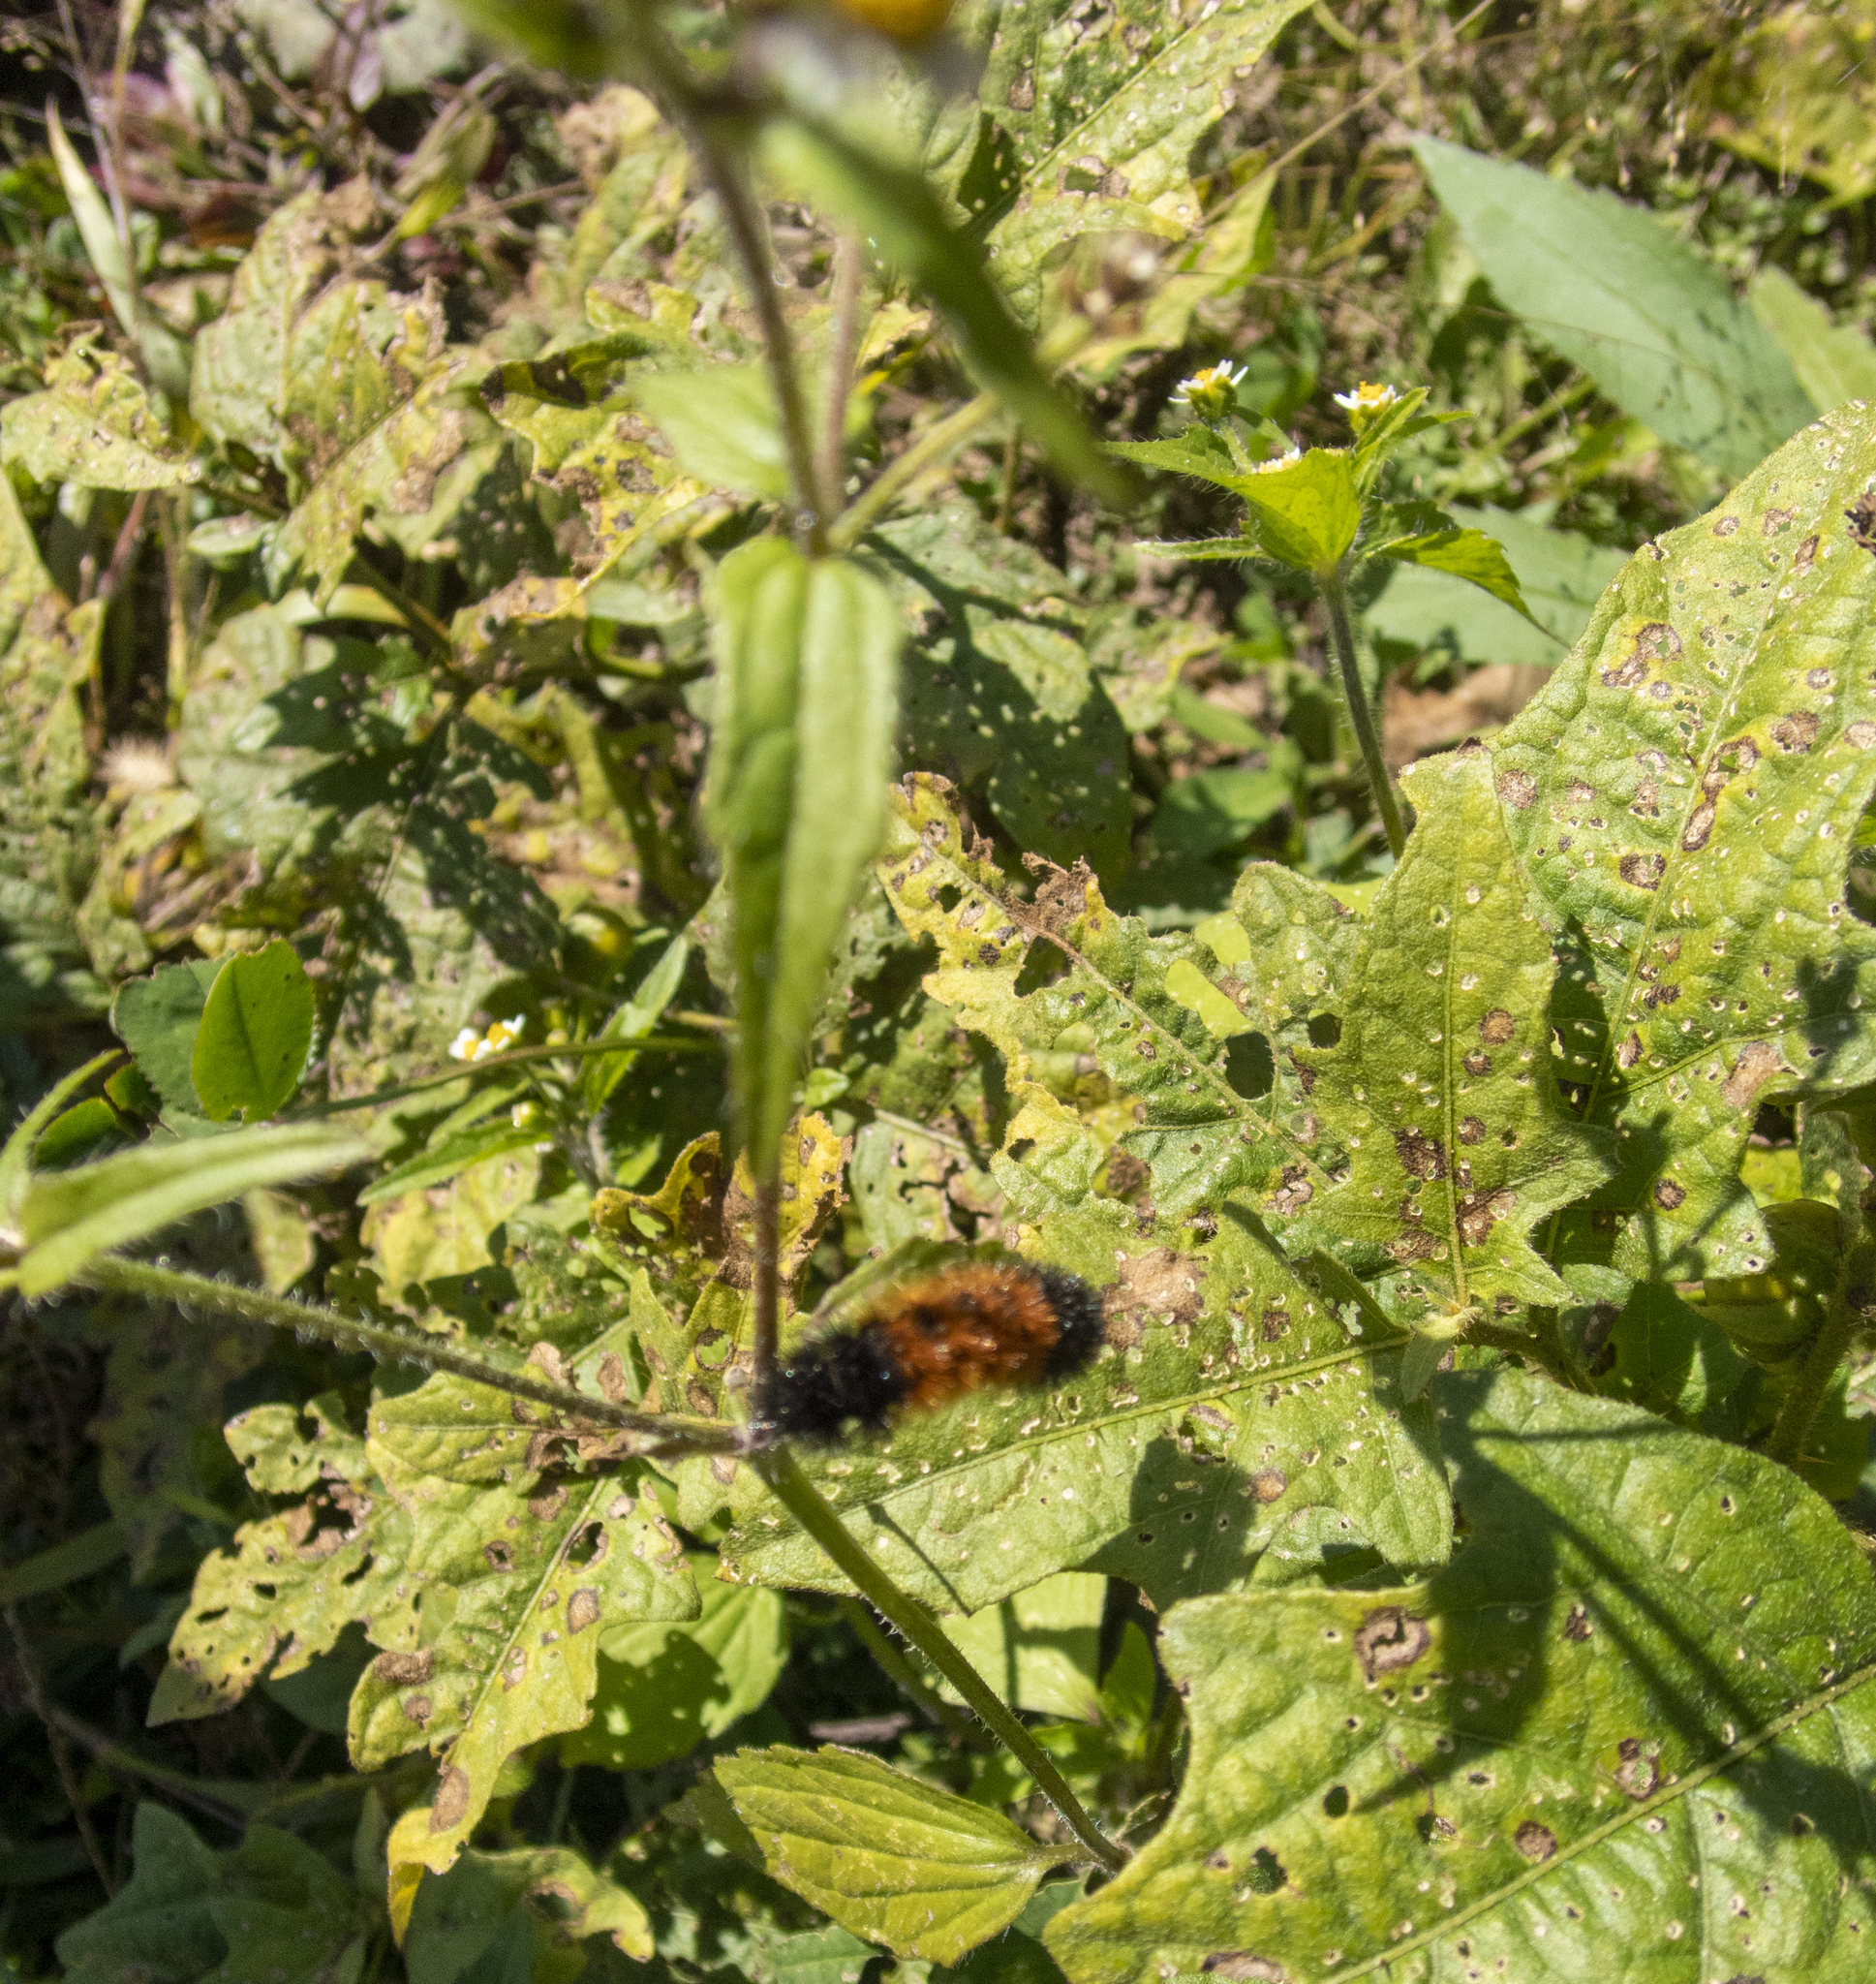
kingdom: Plantae
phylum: Tracheophyta
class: Magnoliopsida
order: Asterales
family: Asteraceae
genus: Galinsoga
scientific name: Galinsoga quadriradiata
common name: Shaggy soldier
